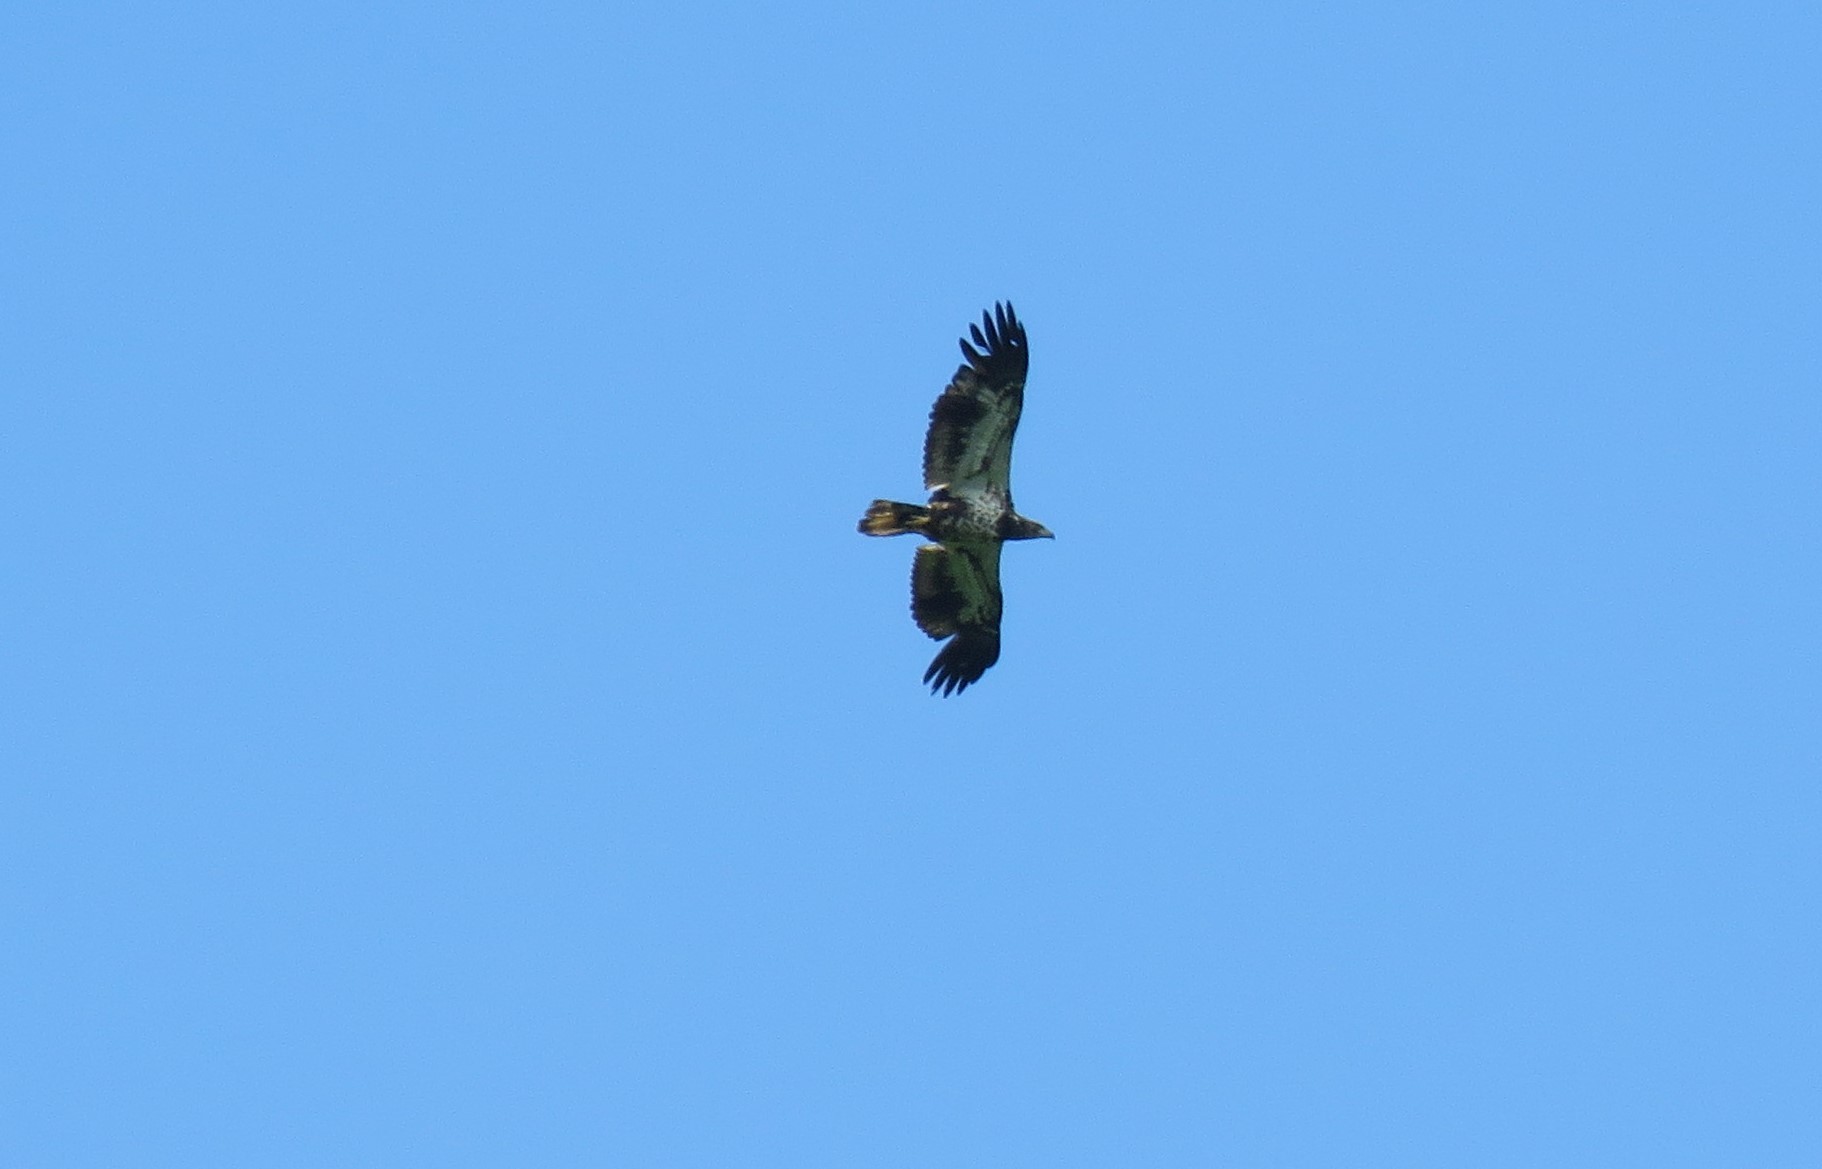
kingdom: Animalia
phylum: Chordata
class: Aves
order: Accipitriformes
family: Accipitridae
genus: Haliaeetus
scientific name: Haliaeetus leucocephalus
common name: Bald eagle
